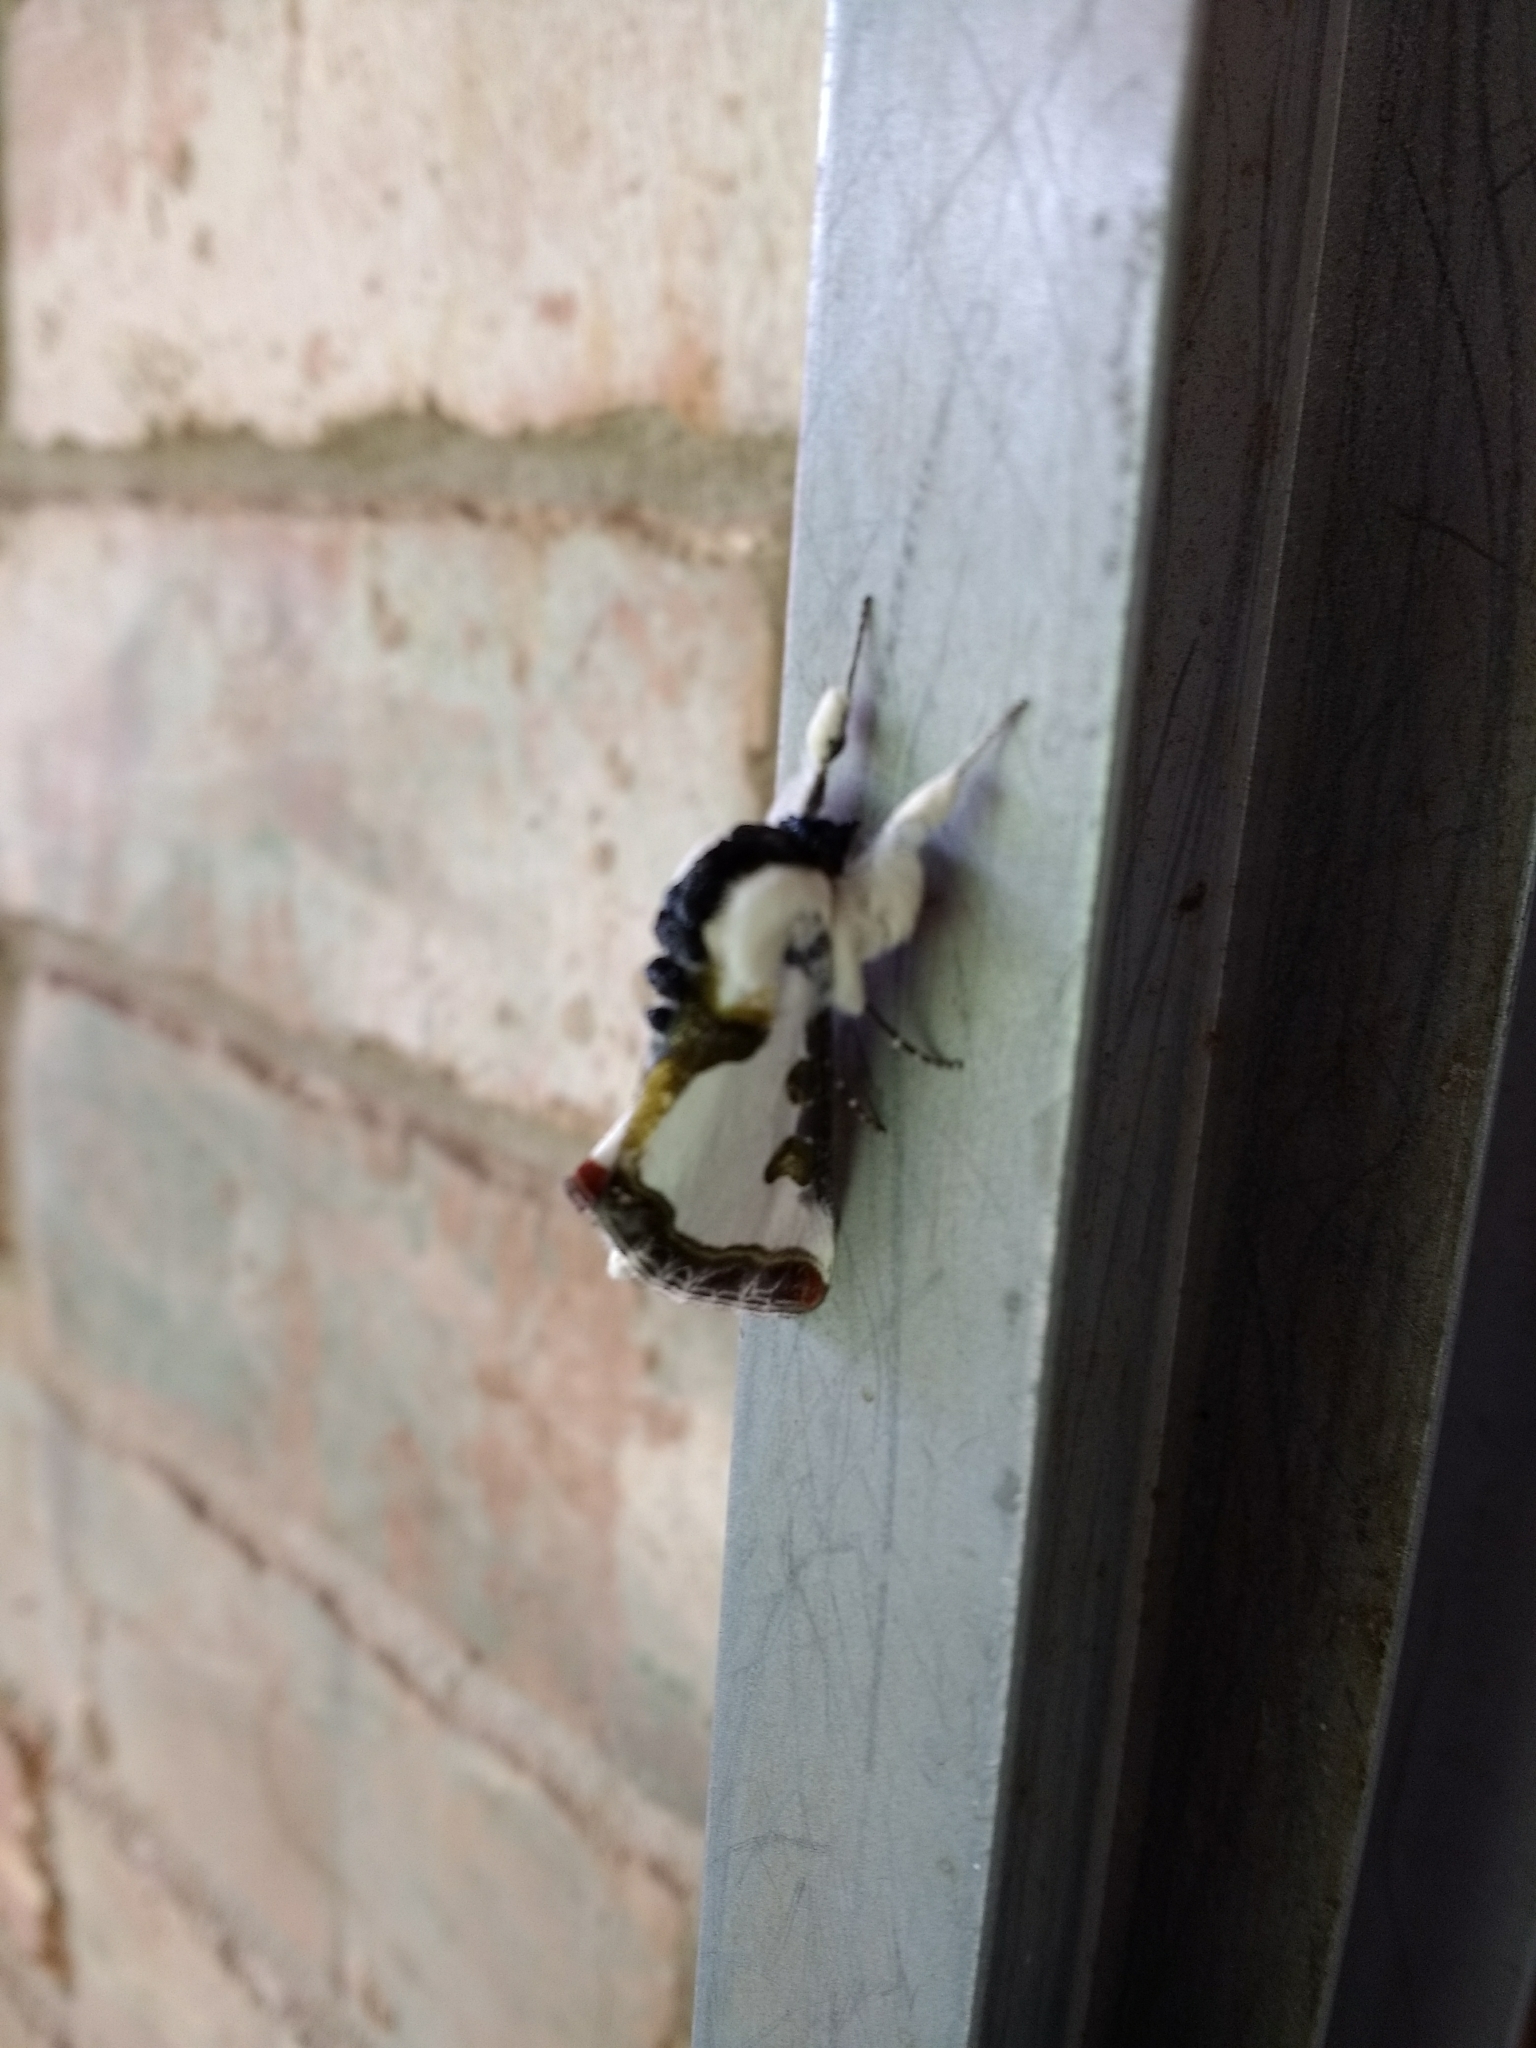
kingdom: Animalia
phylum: Arthropoda
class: Insecta
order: Lepidoptera
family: Noctuidae
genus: Xerociris
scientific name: Xerociris wilsonii
